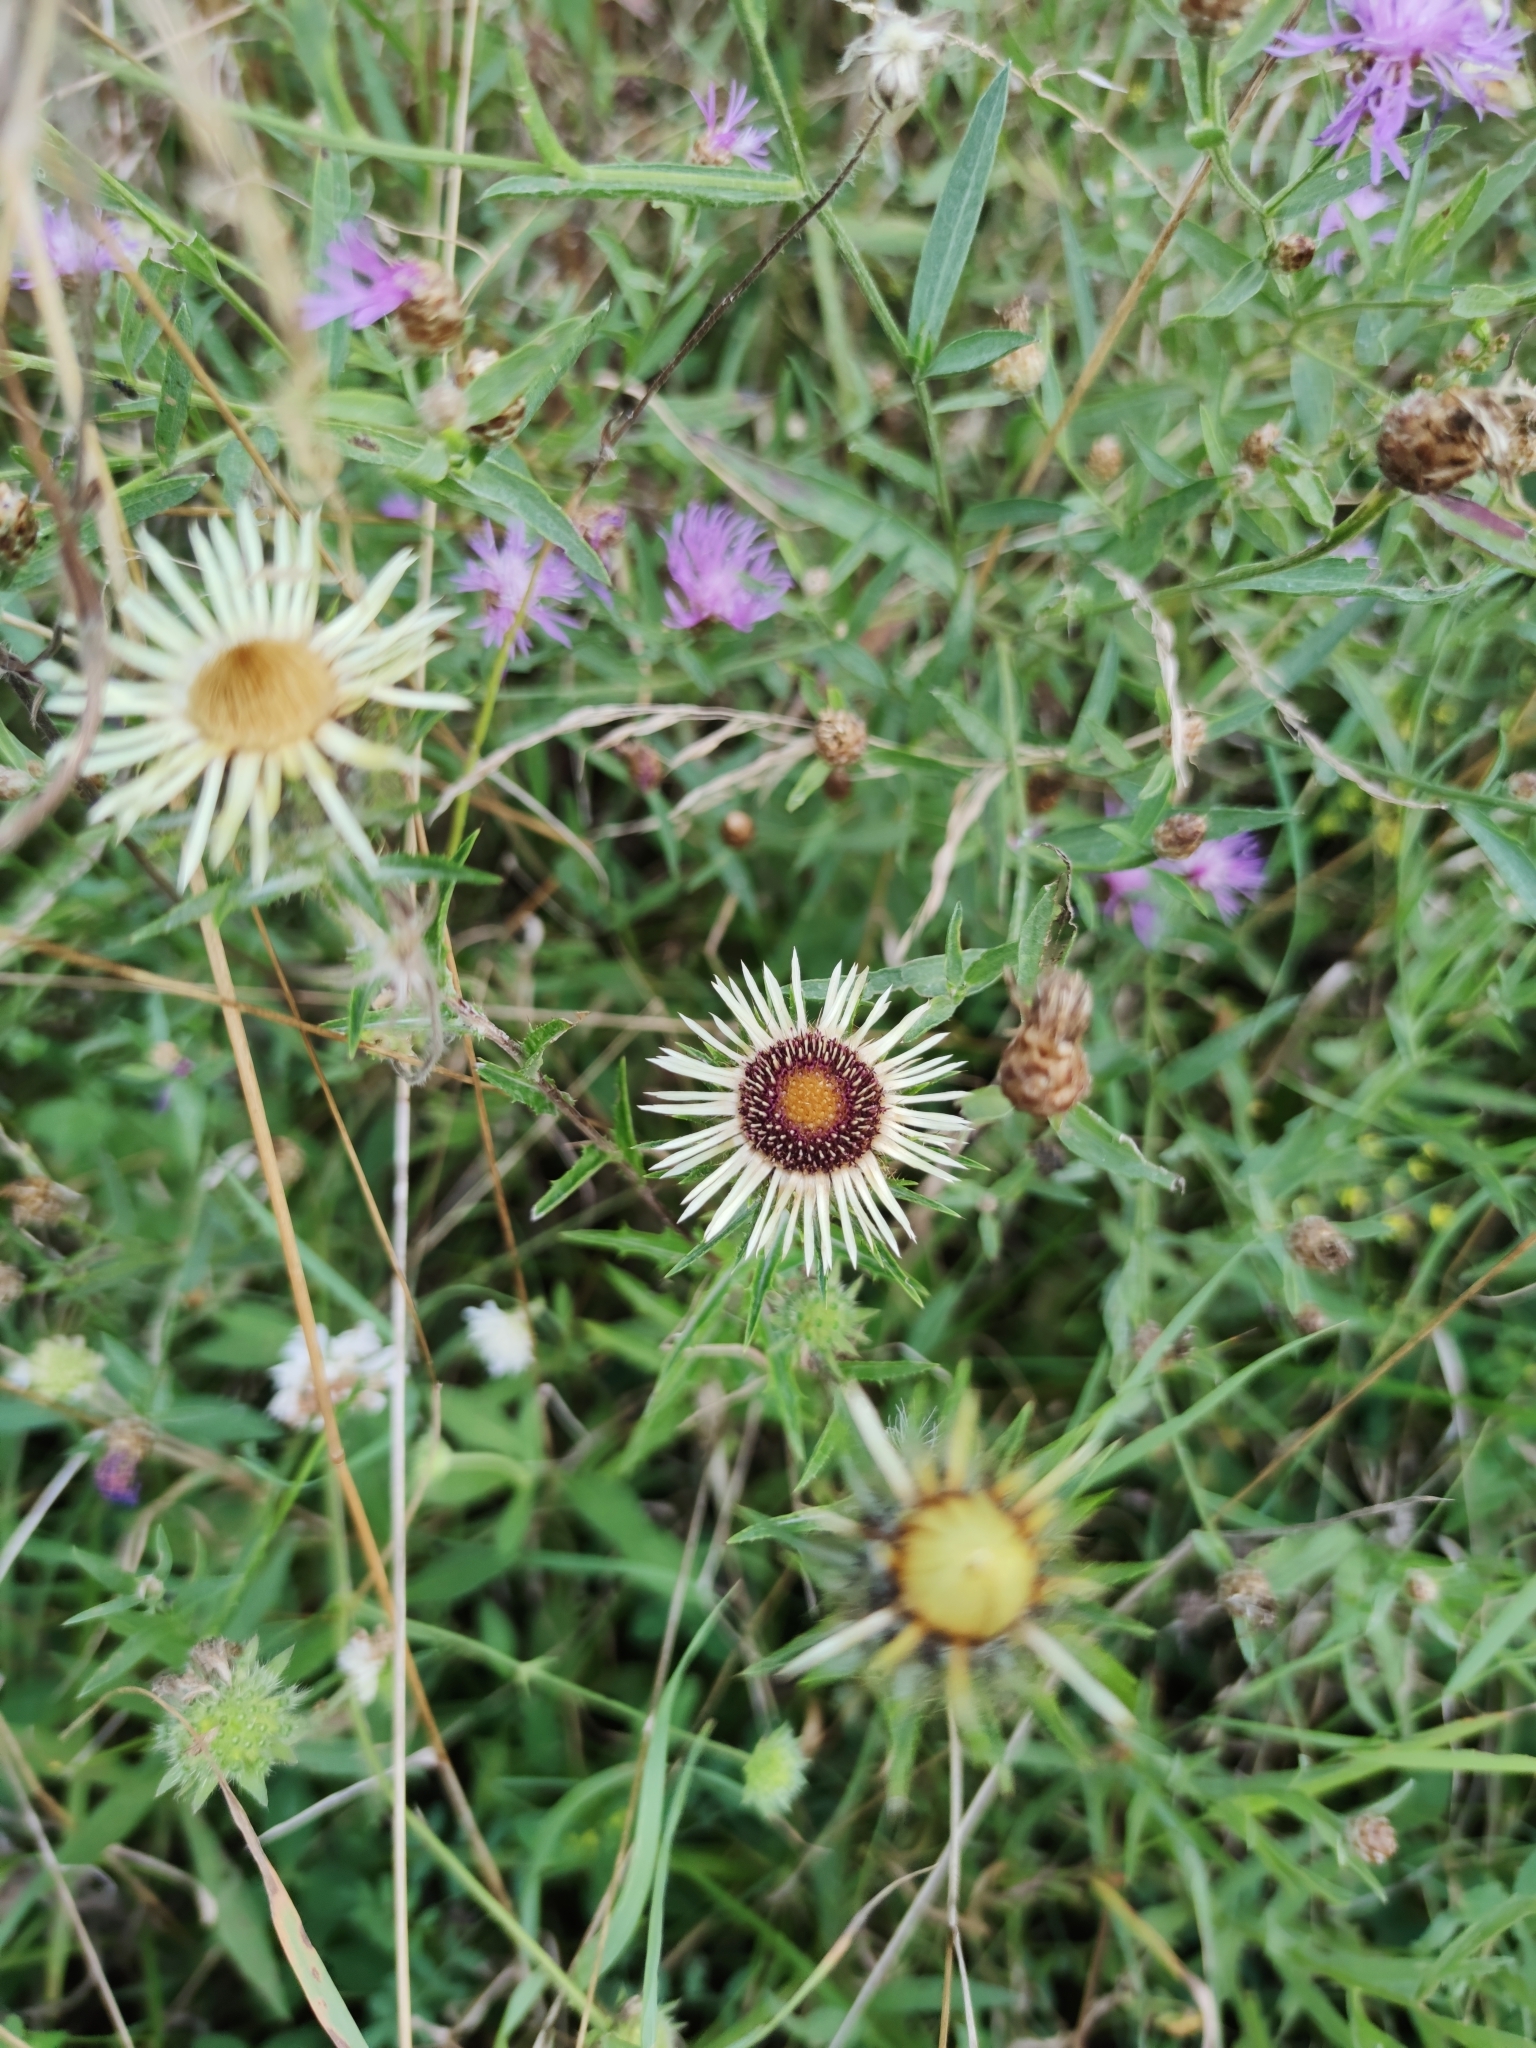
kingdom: Plantae
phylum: Tracheophyta
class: Magnoliopsida
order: Asterales
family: Asteraceae
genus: Carlina
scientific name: Carlina vulgaris
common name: Carline thistle
